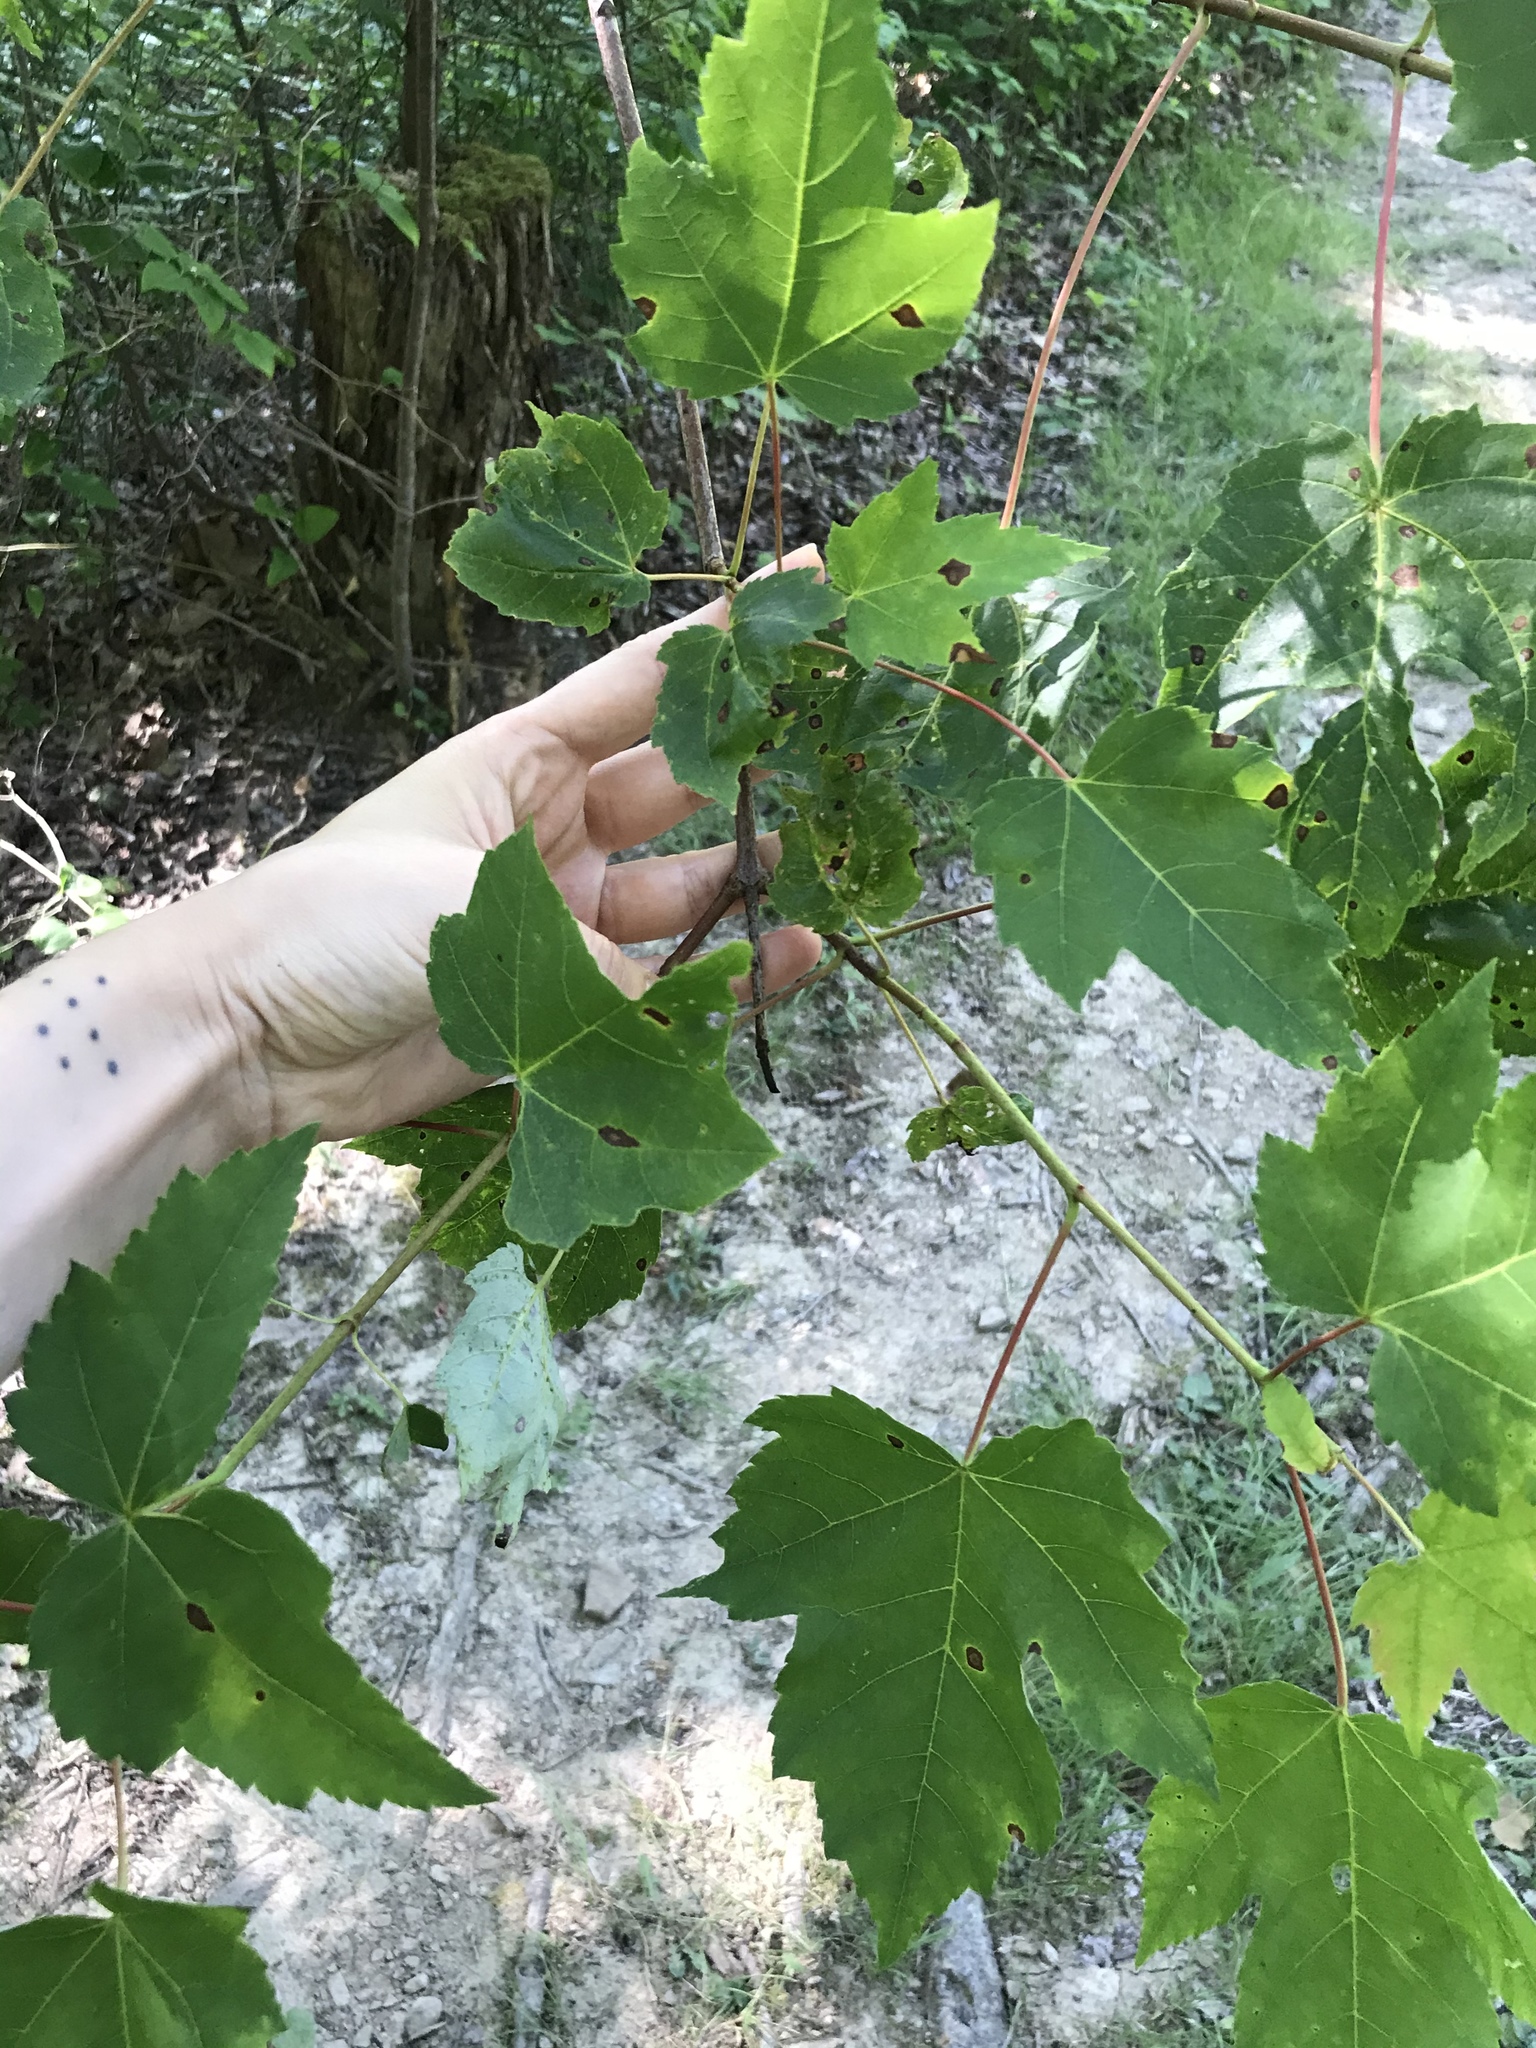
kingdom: Plantae
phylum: Tracheophyta
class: Magnoliopsida
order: Sapindales
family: Sapindaceae
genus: Acer
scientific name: Acer rubrum
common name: Red maple
